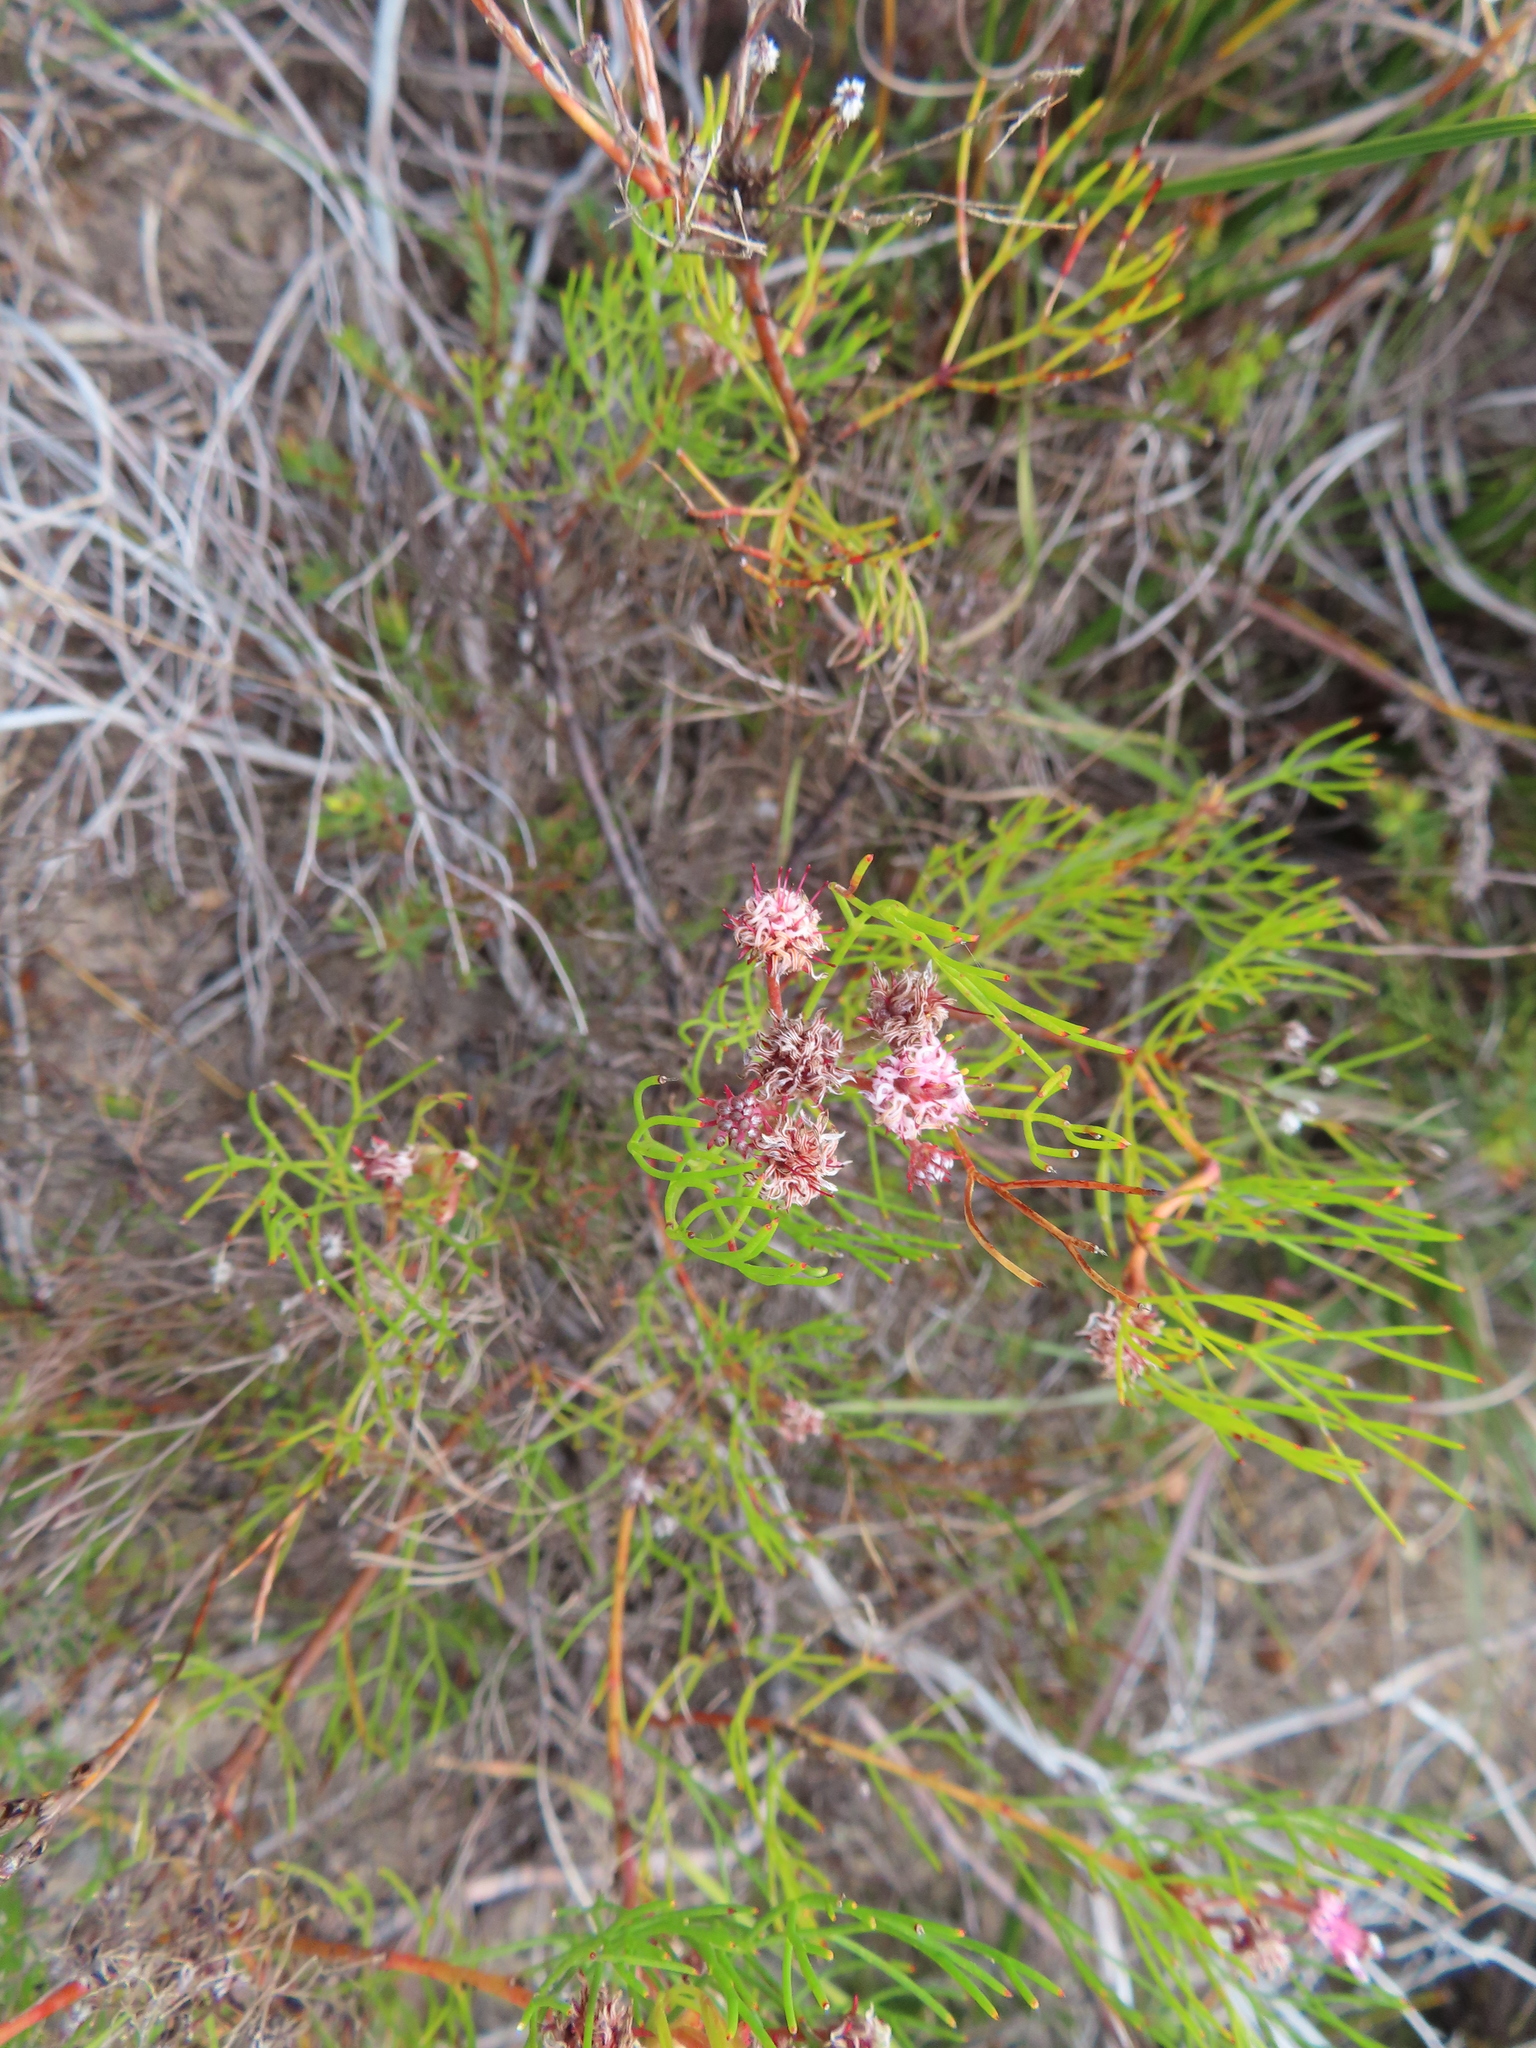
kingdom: Plantae
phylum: Tracheophyta
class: Magnoliopsida
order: Proteales
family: Proteaceae
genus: Serruria
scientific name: Serruria fasciflora
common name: Common pin spiderhead
